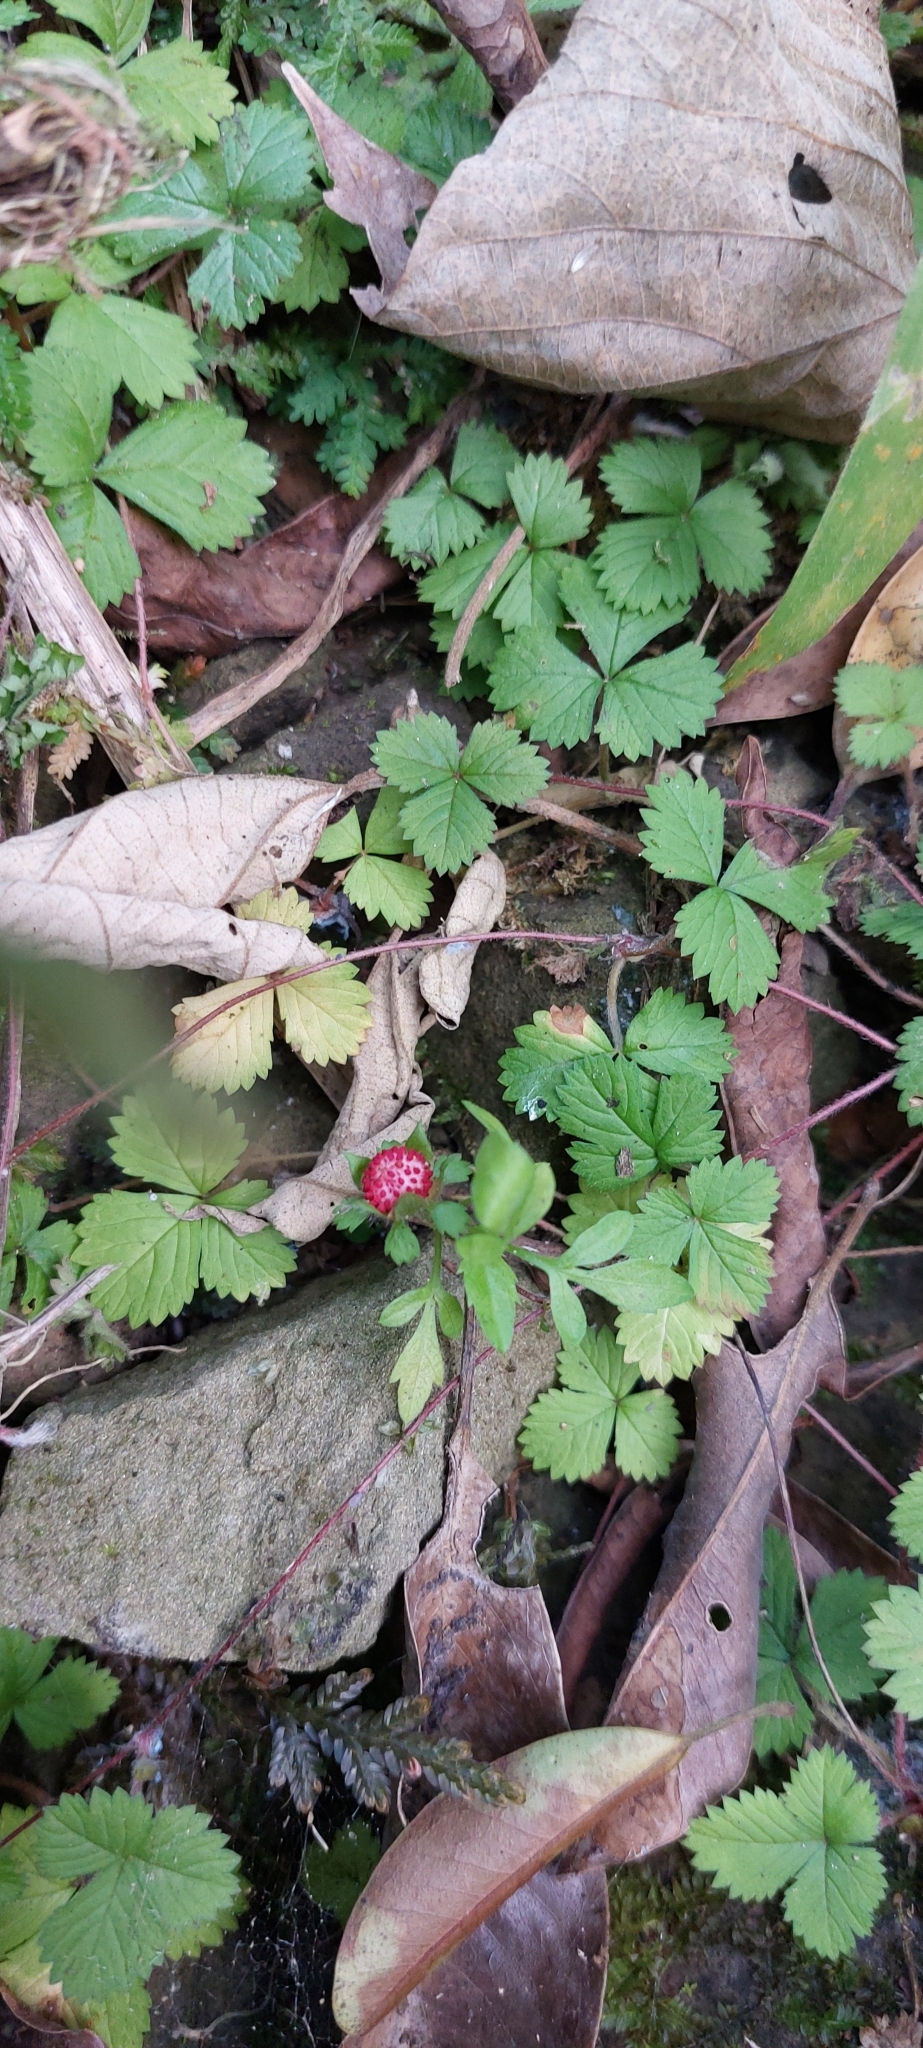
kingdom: Plantae
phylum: Tracheophyta
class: Magnoliopsida
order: Rosales
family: Rosaceae
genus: Potentilla
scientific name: Potentilla wallichiana
